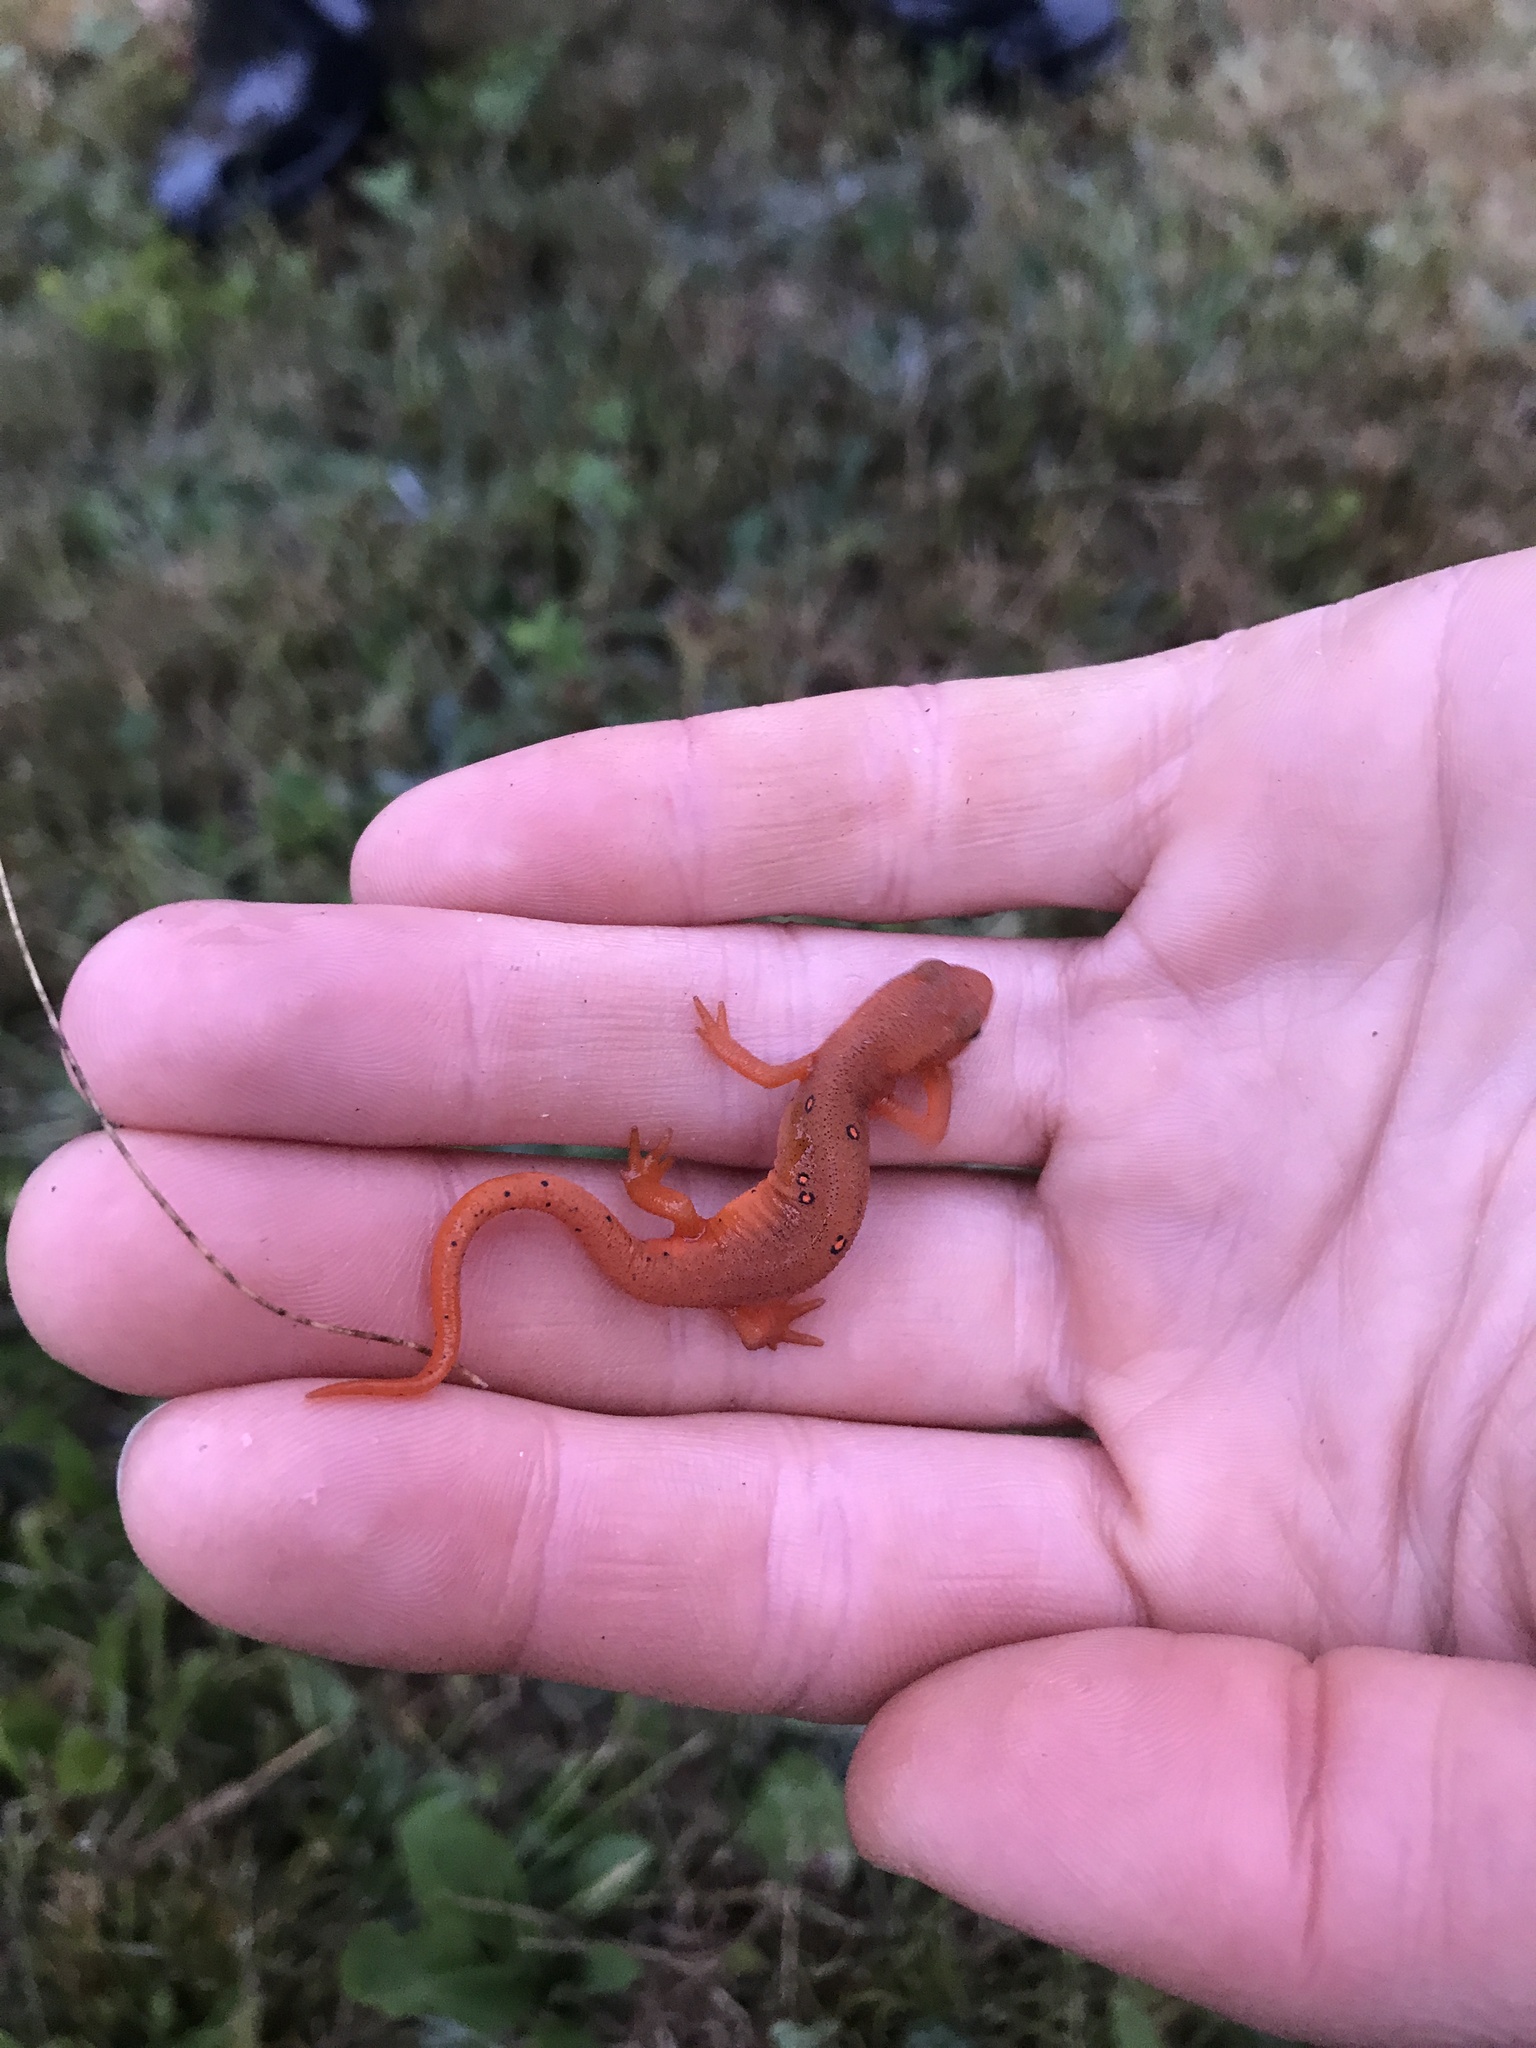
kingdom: Animalia
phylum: Chordata
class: Amphibia
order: Caudata
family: Salamandridae
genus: Notophthalmus
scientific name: Notophthalmus viridescens
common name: Eastern newt
